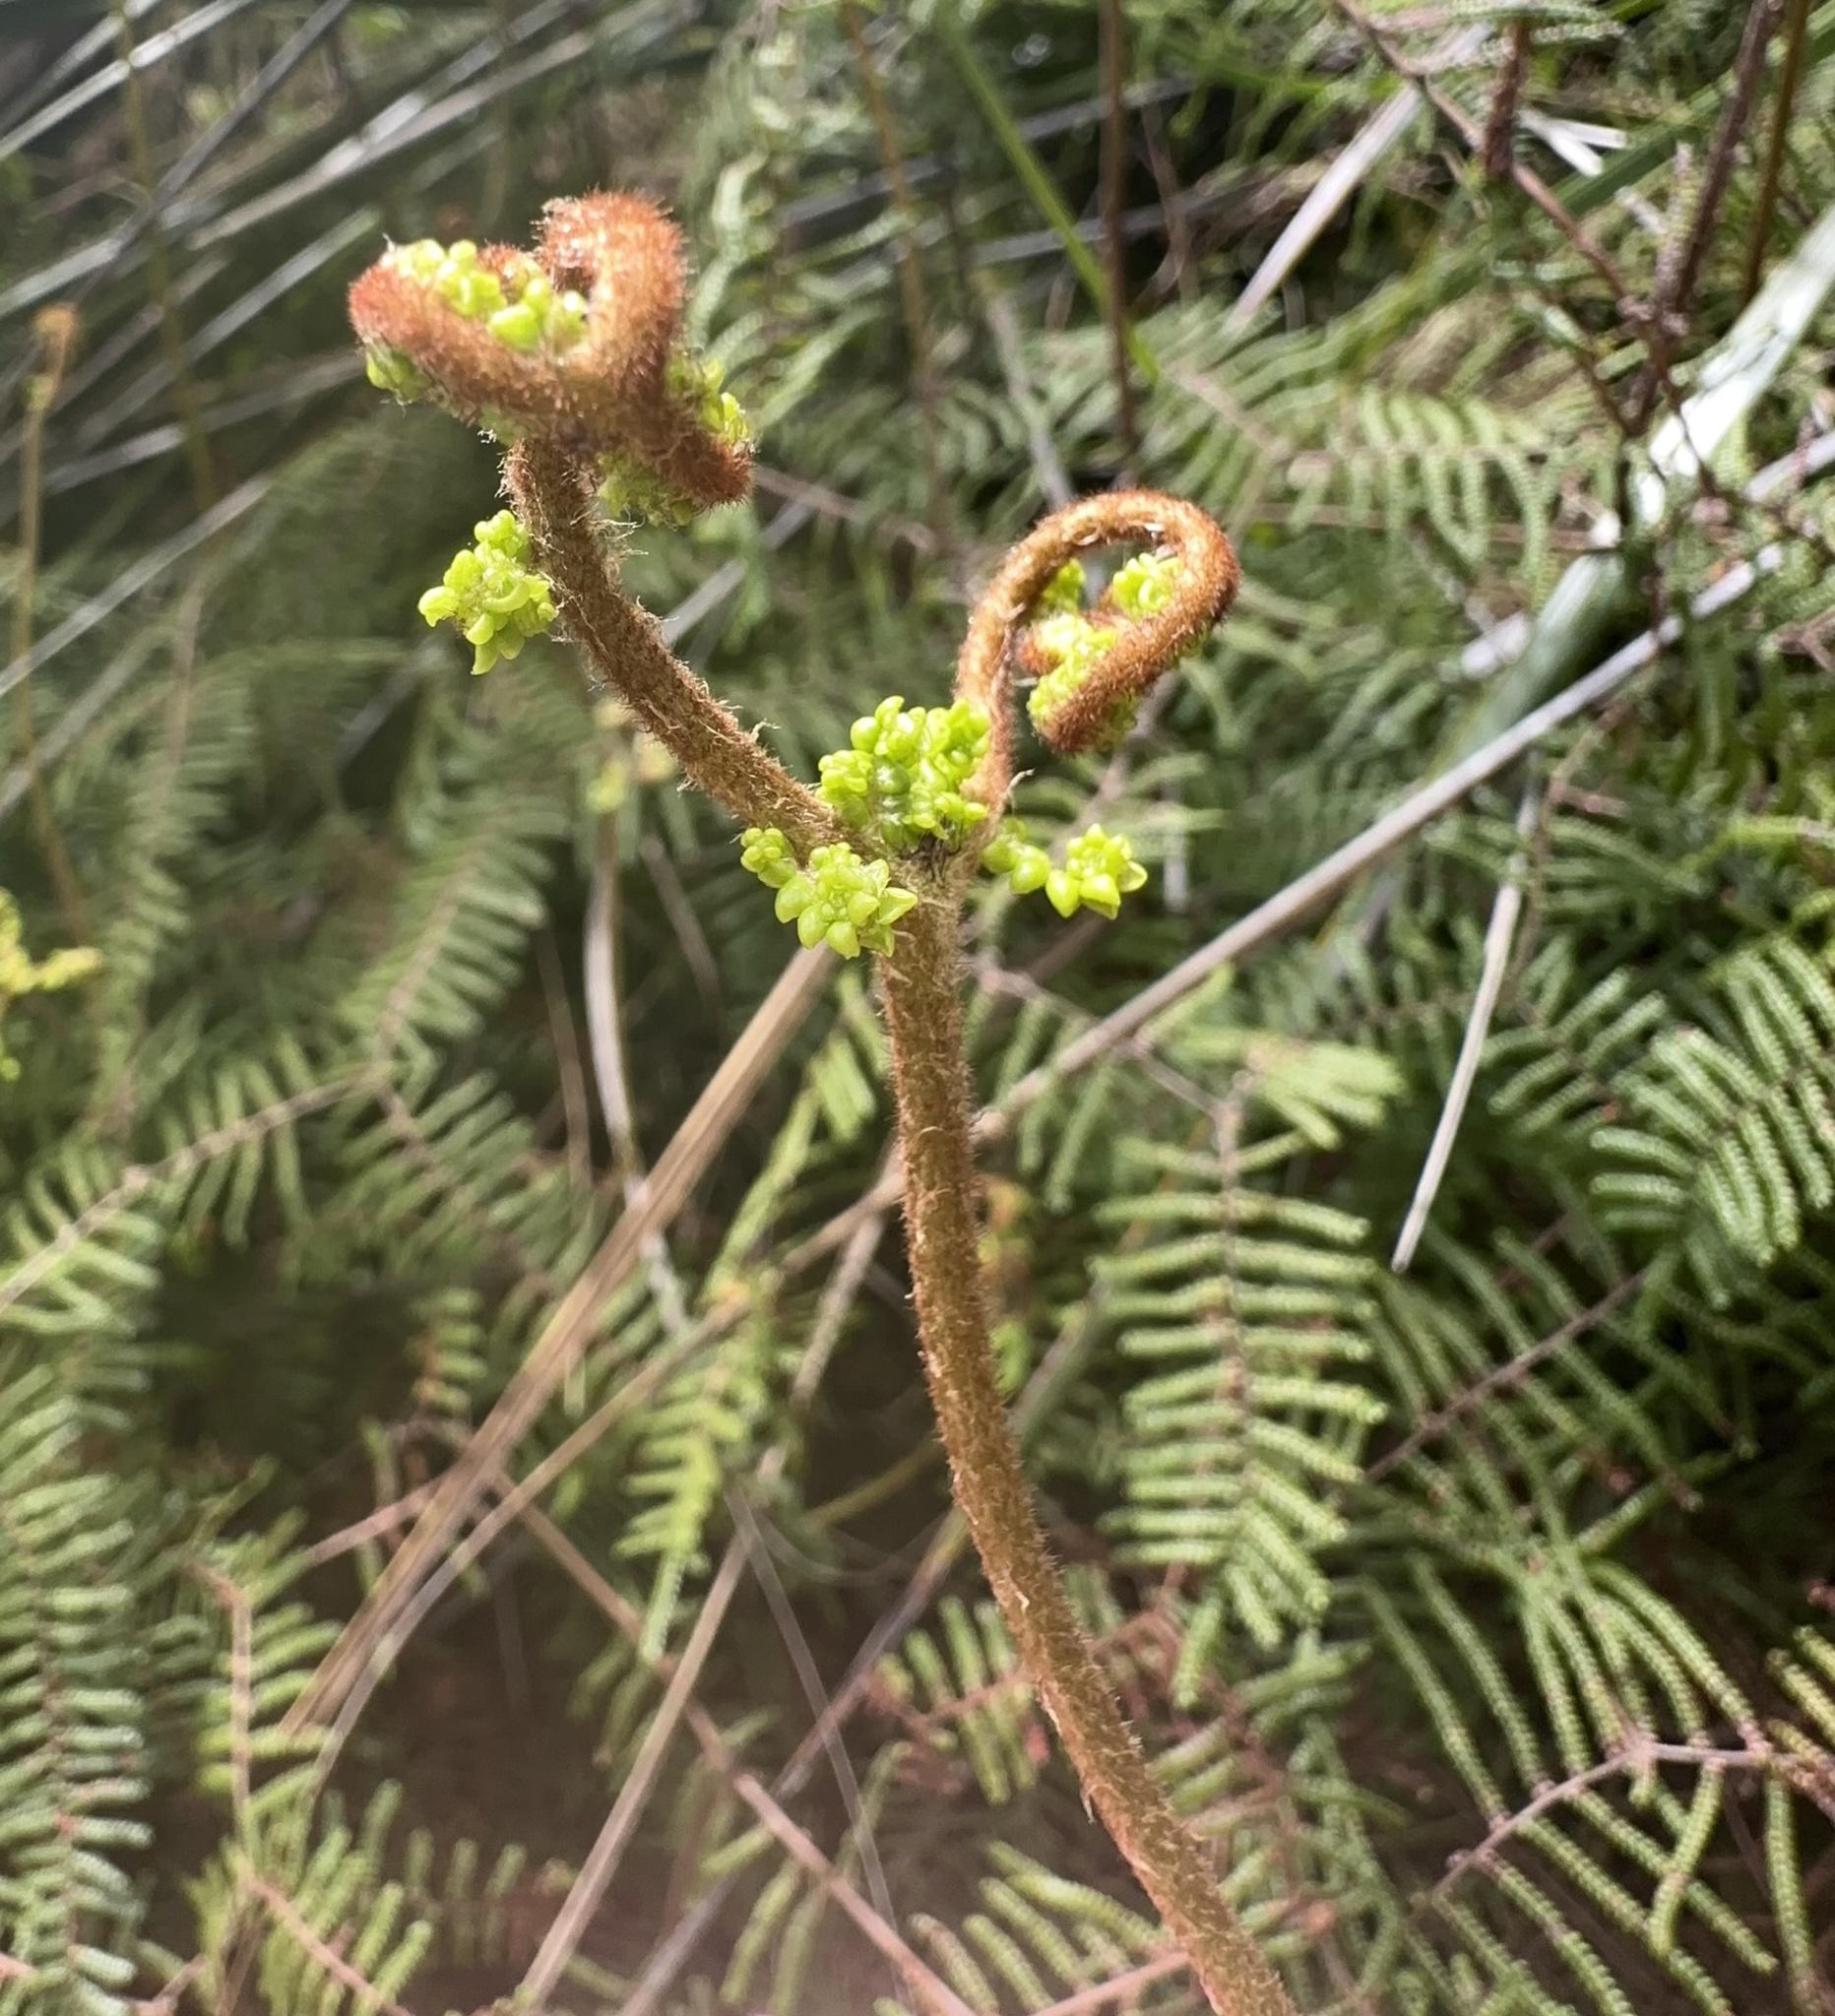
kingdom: Plantae
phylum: Tracheophyta
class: Polypodiopsida
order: Gleicheniales
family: Gleicheniaceae
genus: Gleichenia
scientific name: Gleichenia microphylla
